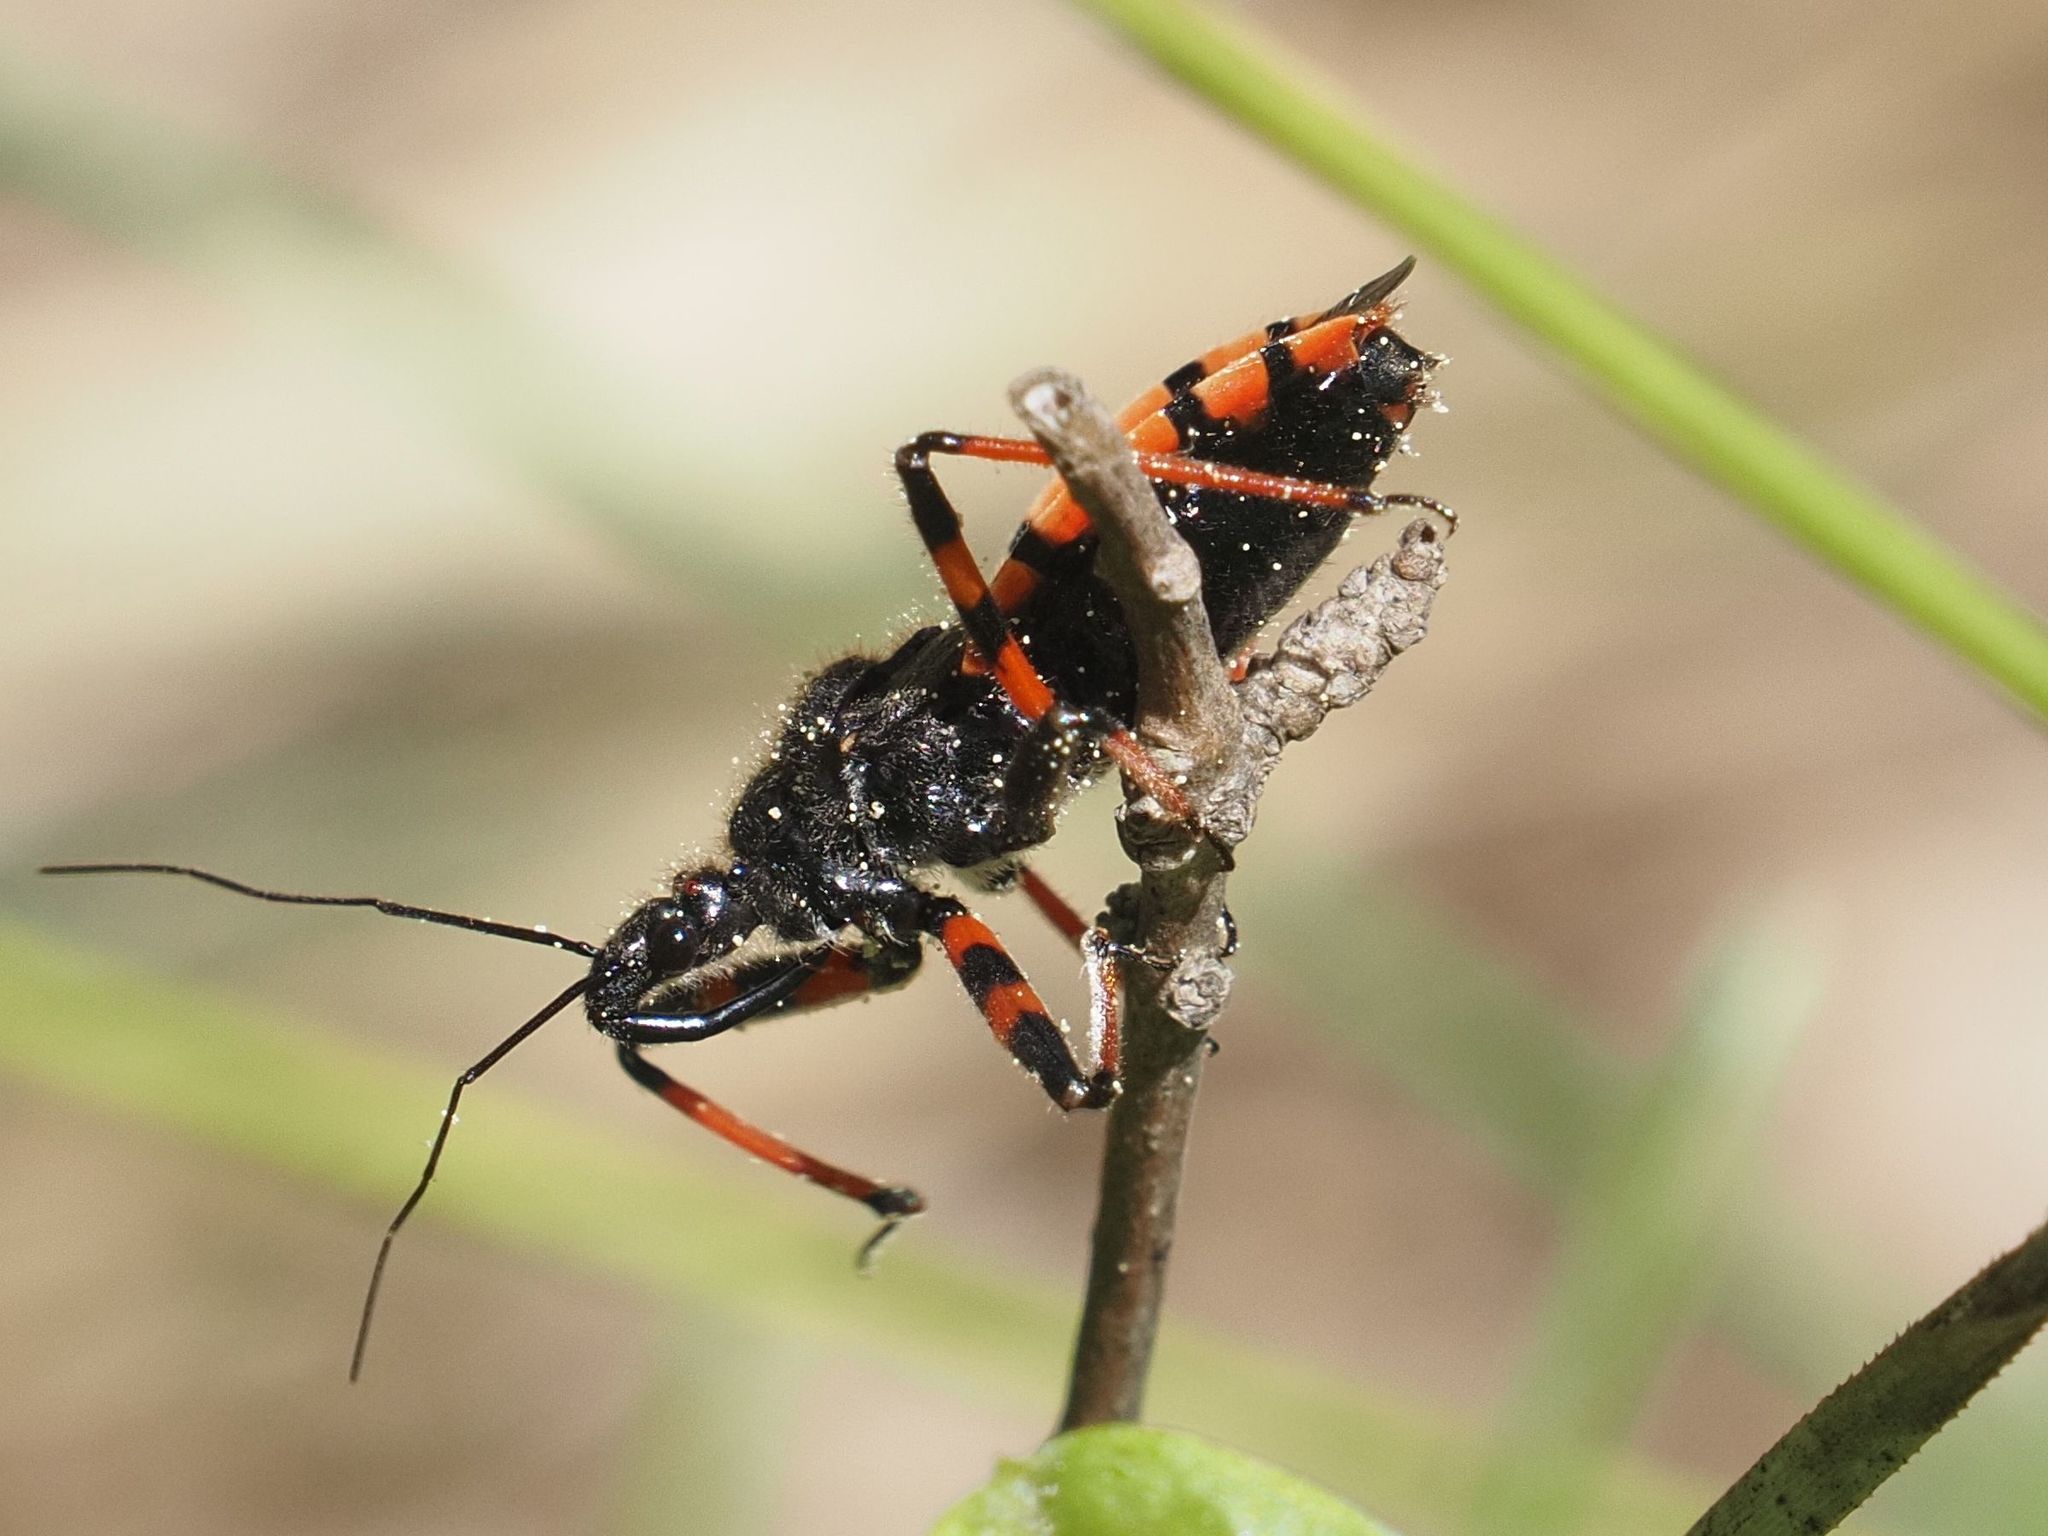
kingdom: Animalia
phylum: Arthropoda
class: Insecta
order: Hemiptera
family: Reduviidae
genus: Rhynocoris
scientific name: Rhynocoris annulatus
